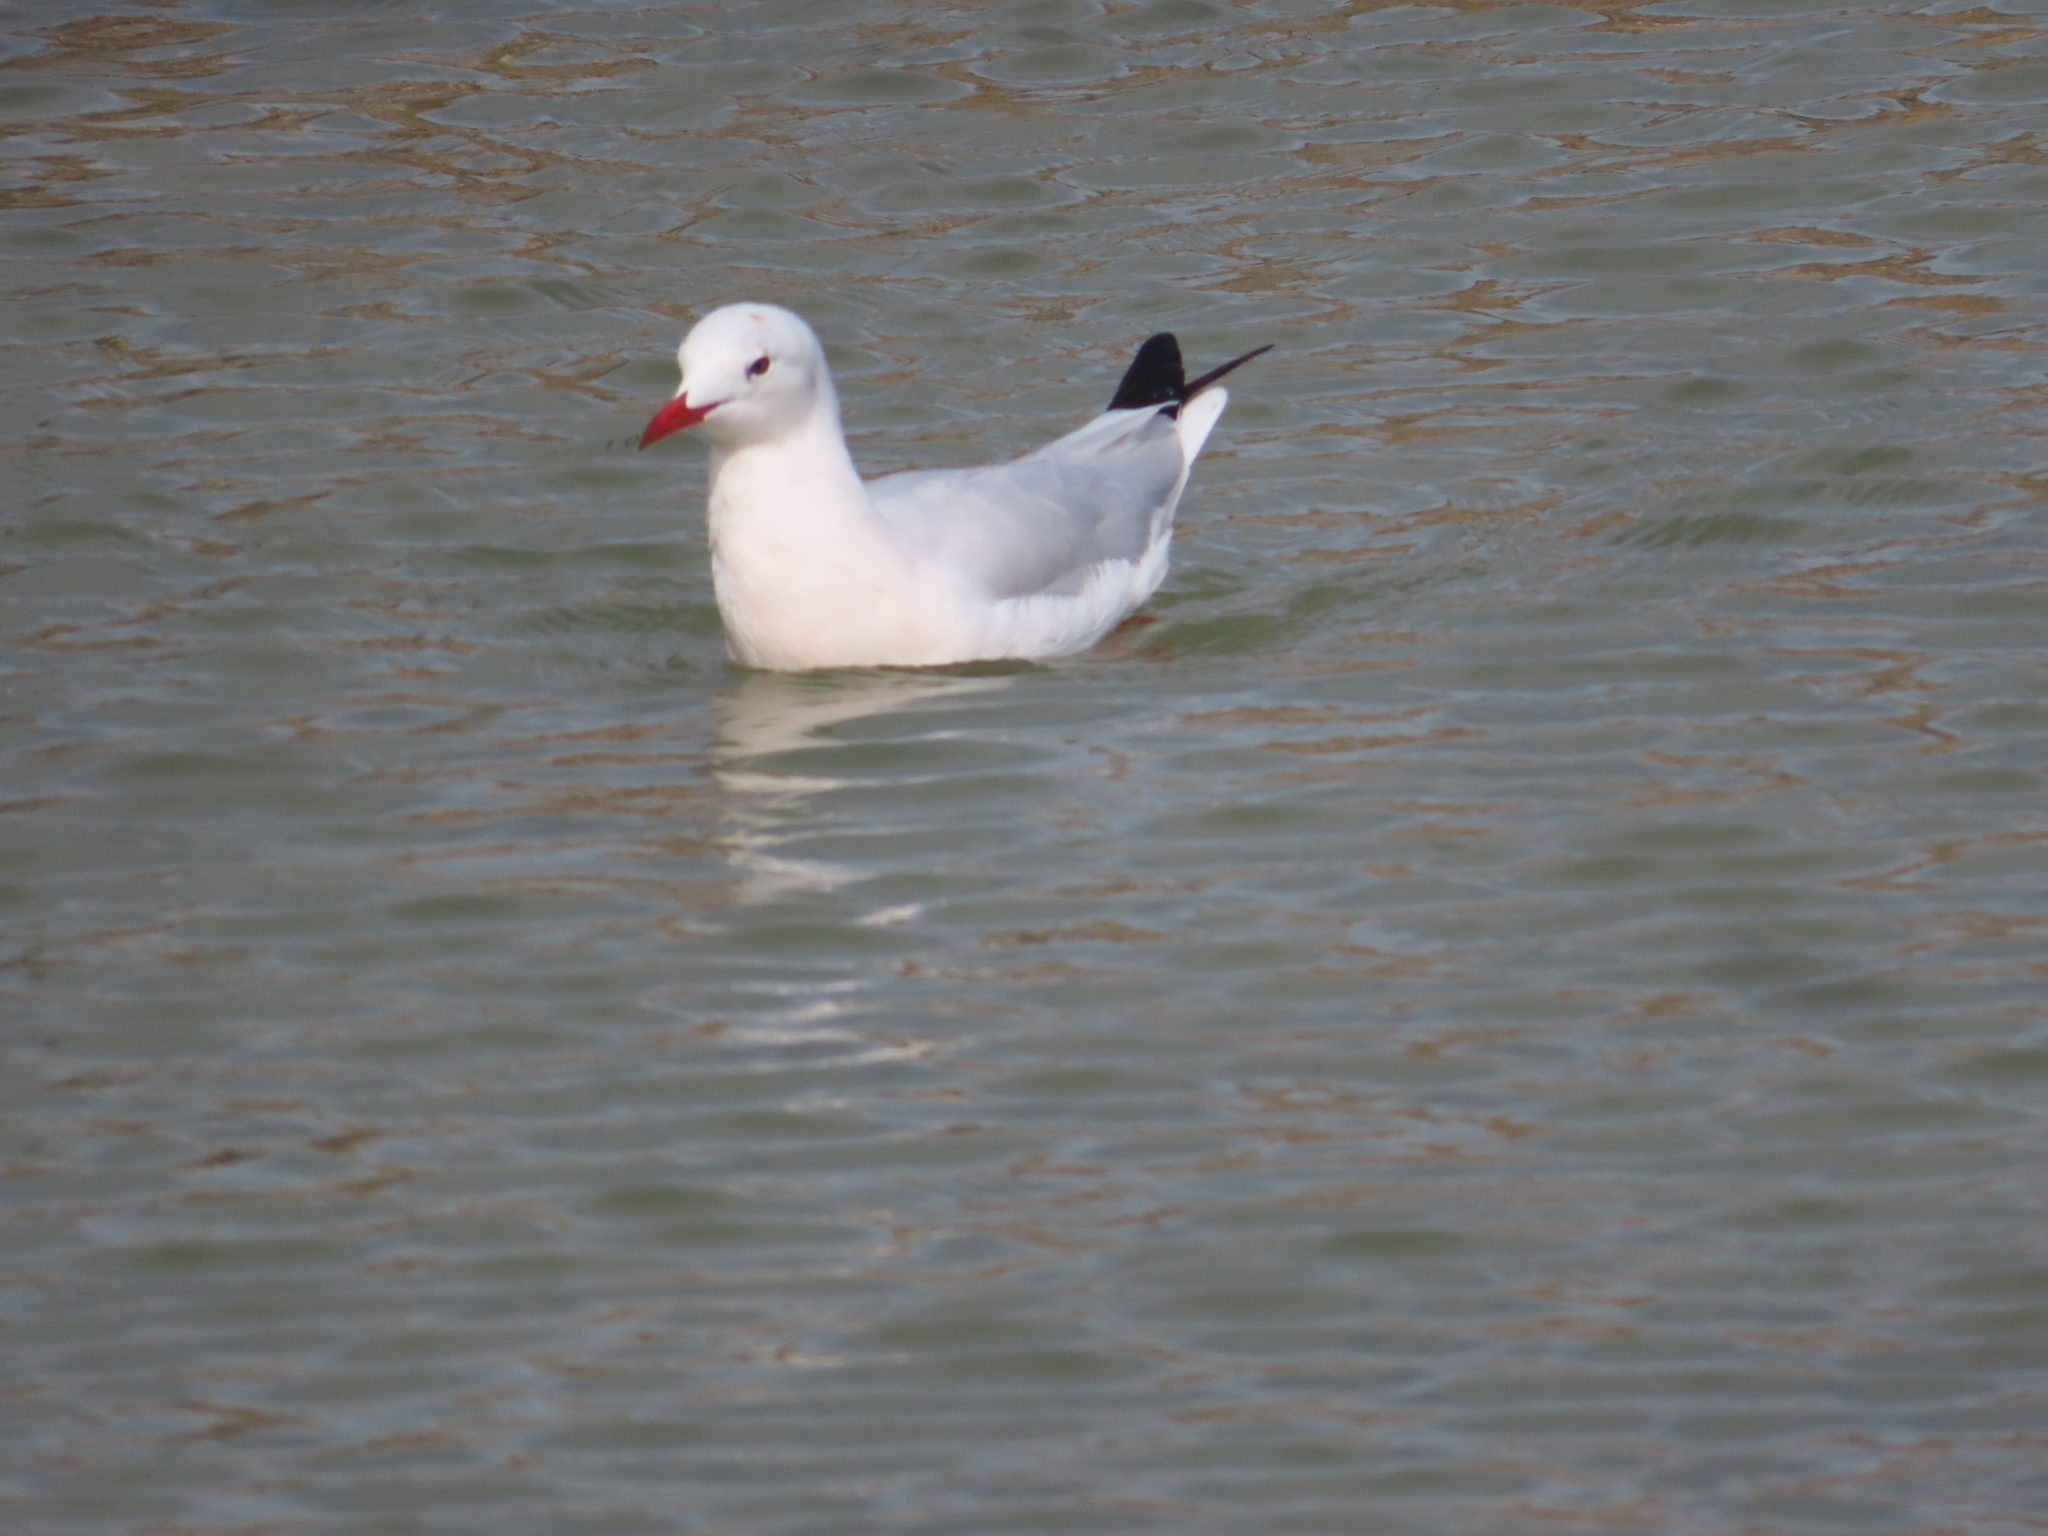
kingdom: Animalia
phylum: Chordata
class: Aves
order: Charadriiformes
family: Laridae
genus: Chroicocephalus
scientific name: Chroicocephalus ridibundus
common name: Black-headed gull
